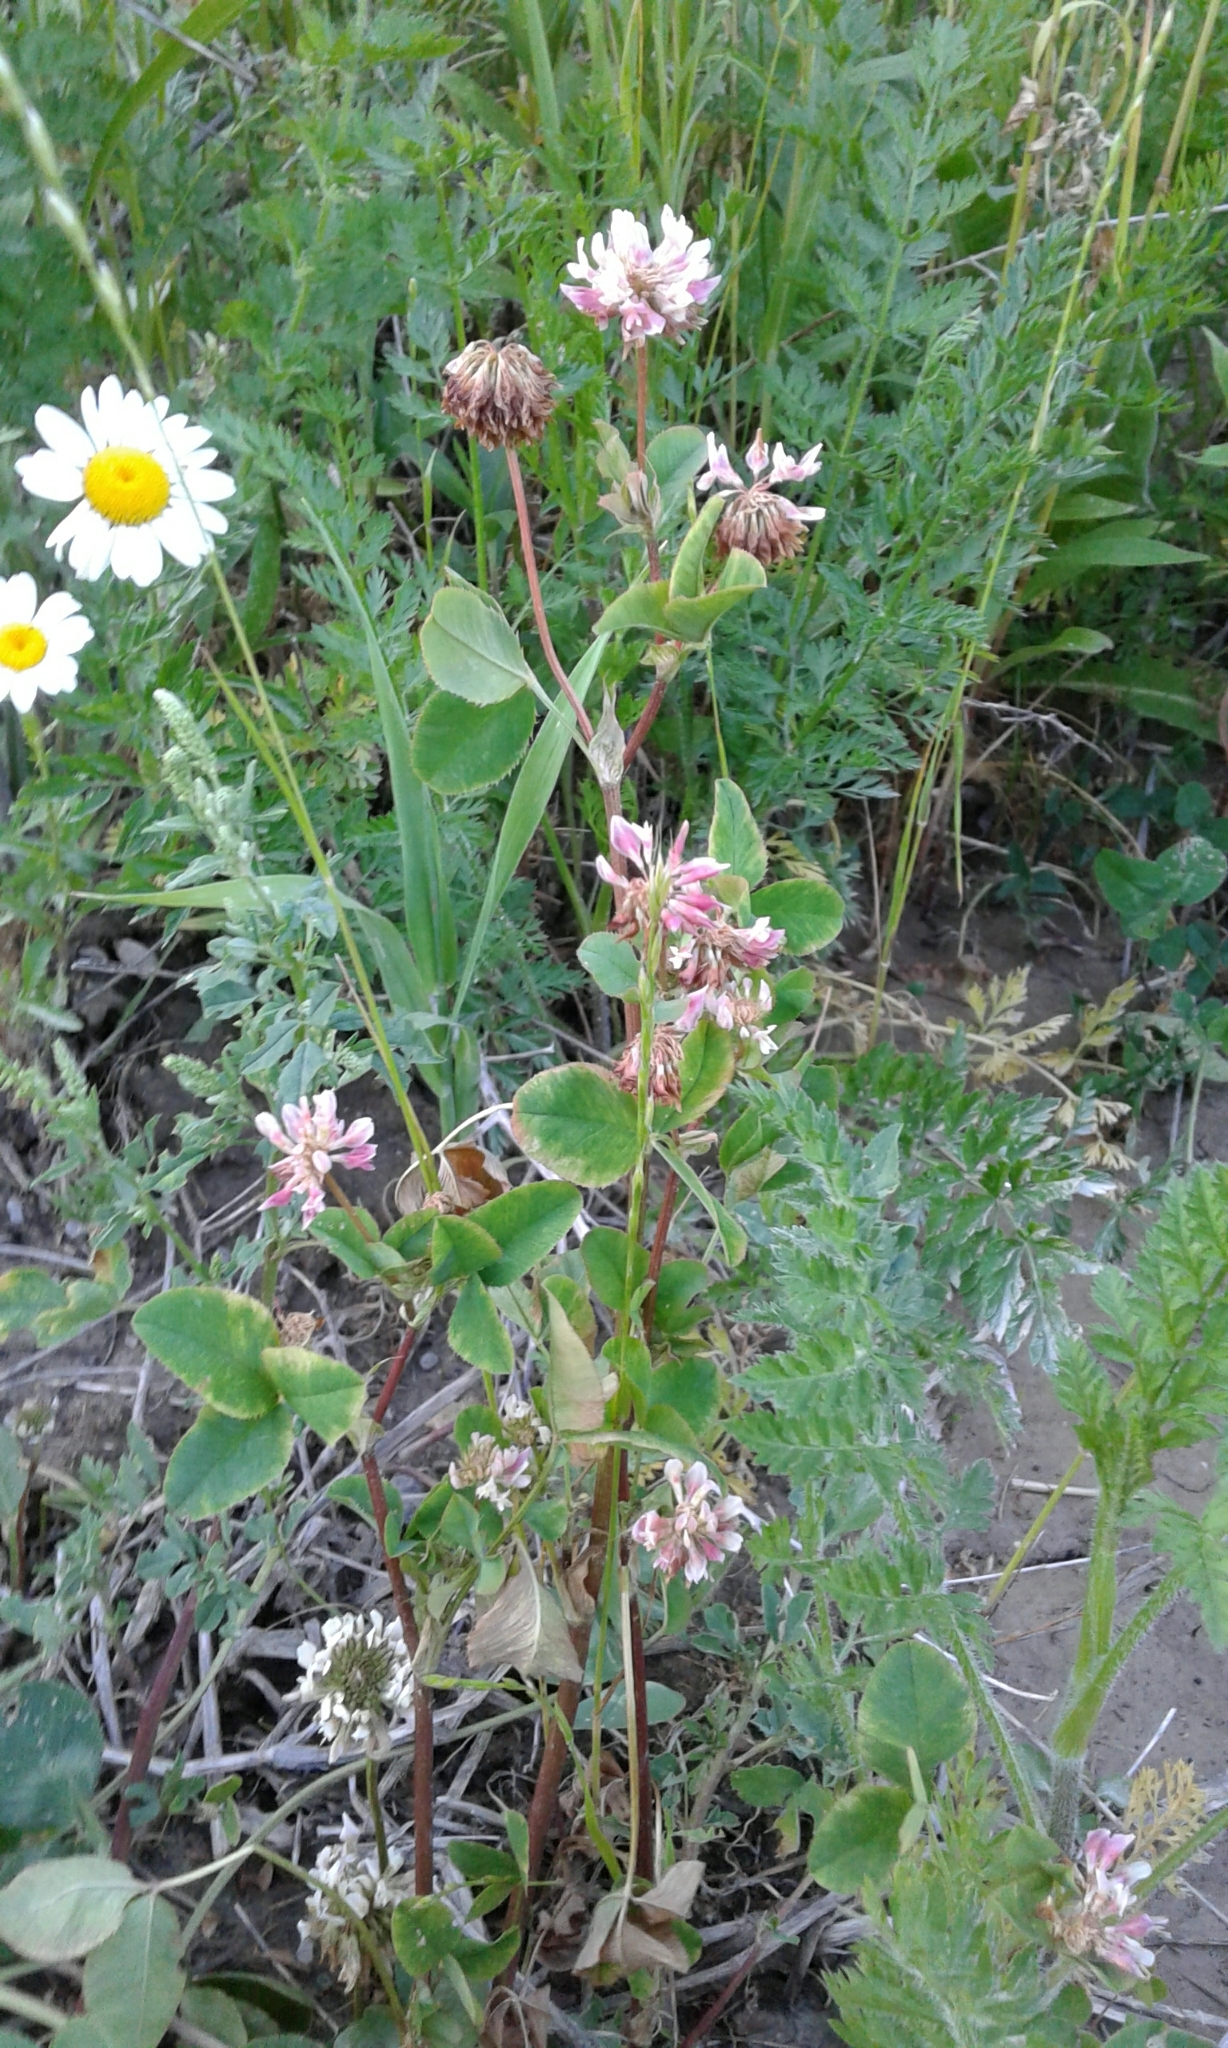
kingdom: Plantae
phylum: Tracheophyta
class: Magnoliopsida
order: Fabales
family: Fabaceae
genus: Trifolium
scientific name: Trifolium hybridum
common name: Alsike clover
